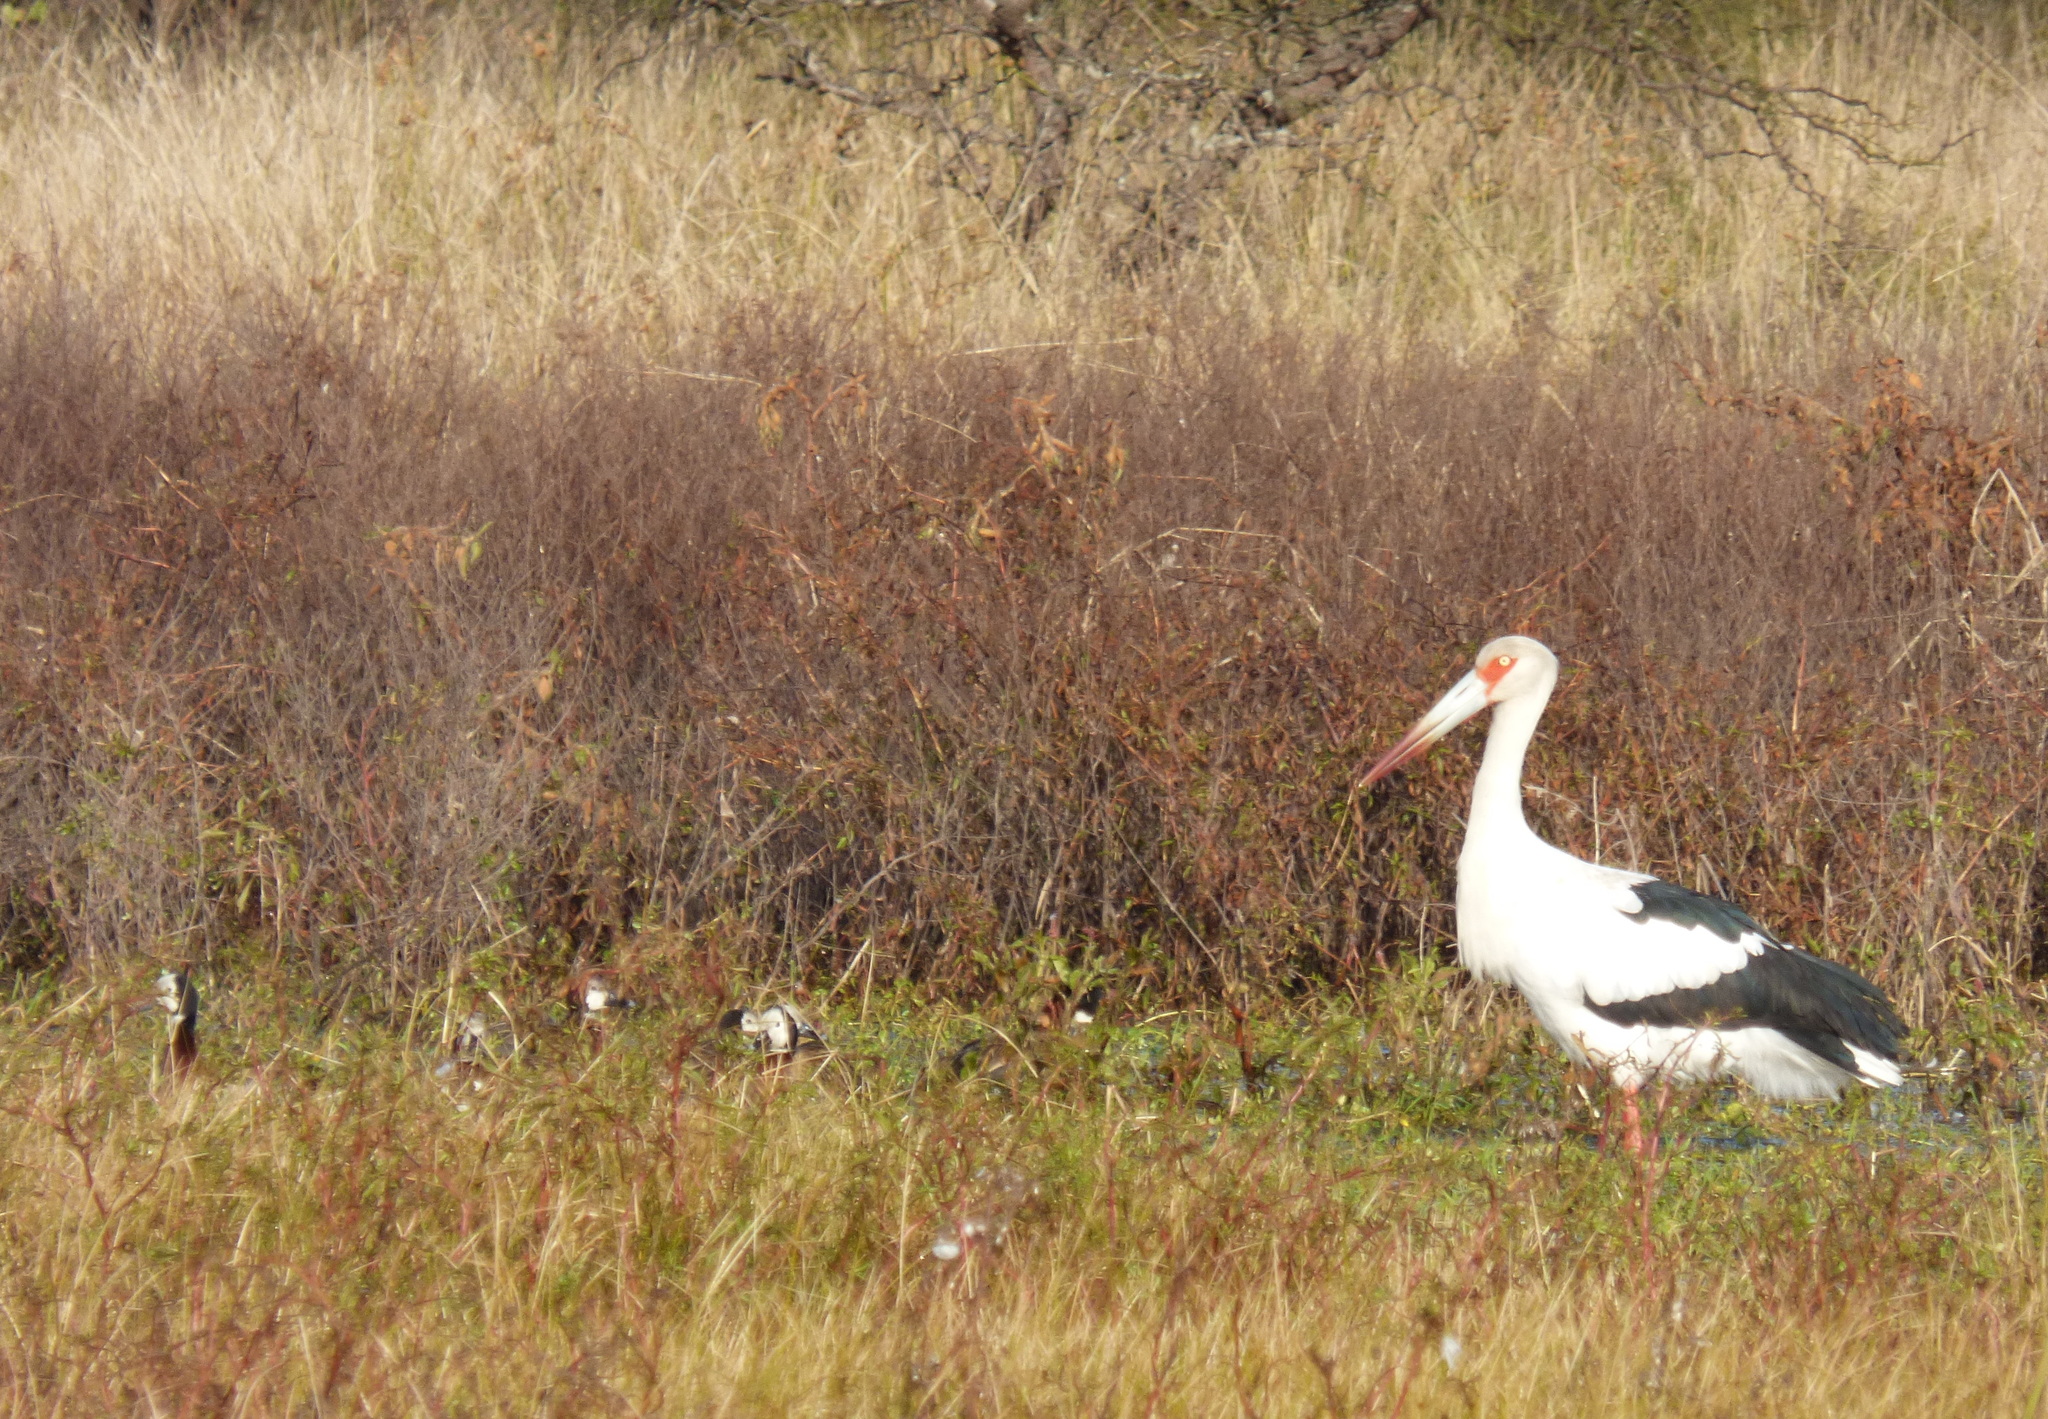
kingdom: Animalia
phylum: Chordata
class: Aves
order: Ciconiiformes
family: Ciconiidae
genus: Ciconia
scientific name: Ciconia maguari
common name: Maguari stork
